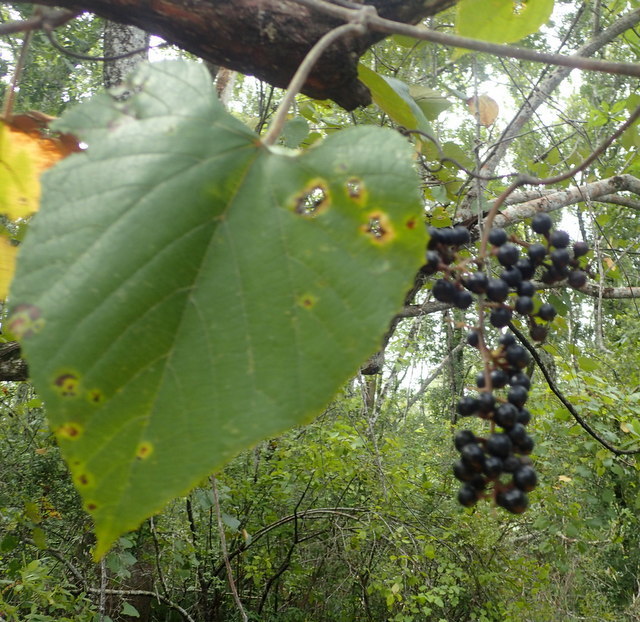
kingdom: Plantae
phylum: Tracheophyta
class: Magnoliopsida
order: Vitales
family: Vitaceae
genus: Vitis
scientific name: Vitis cinerea
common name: Ashy grape
